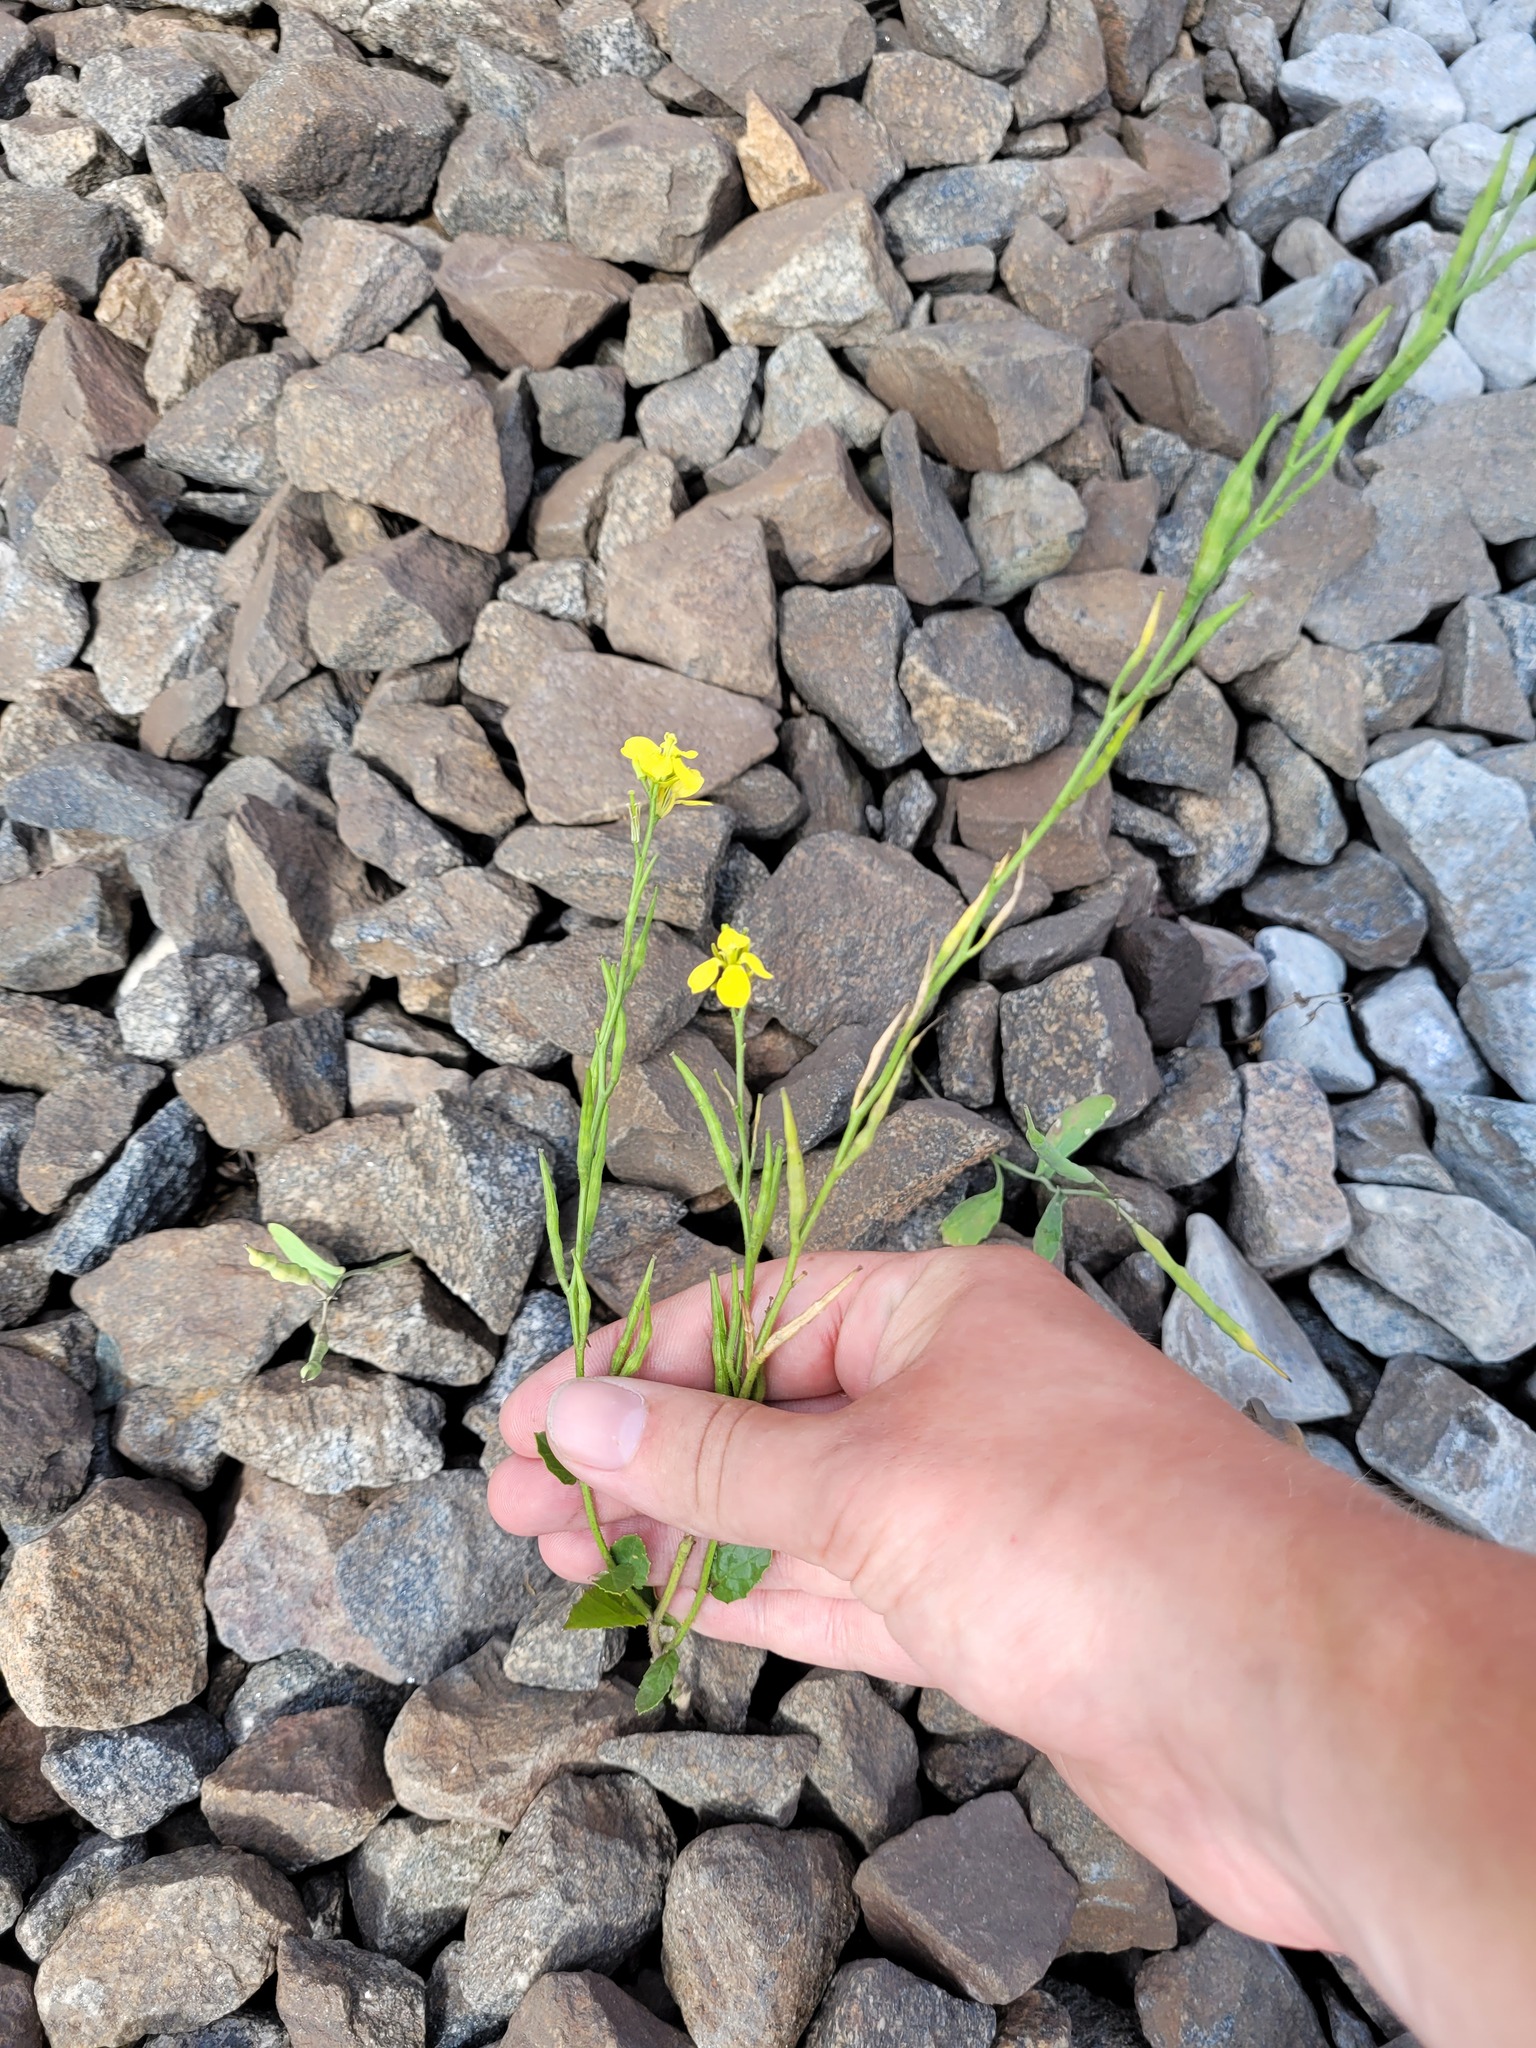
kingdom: Plantae
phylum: Tracheophyta
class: Magnoliopsida
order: Brassicales
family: Brassicaceae
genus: Sinapis
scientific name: Sinapis arvensis
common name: Charlock
